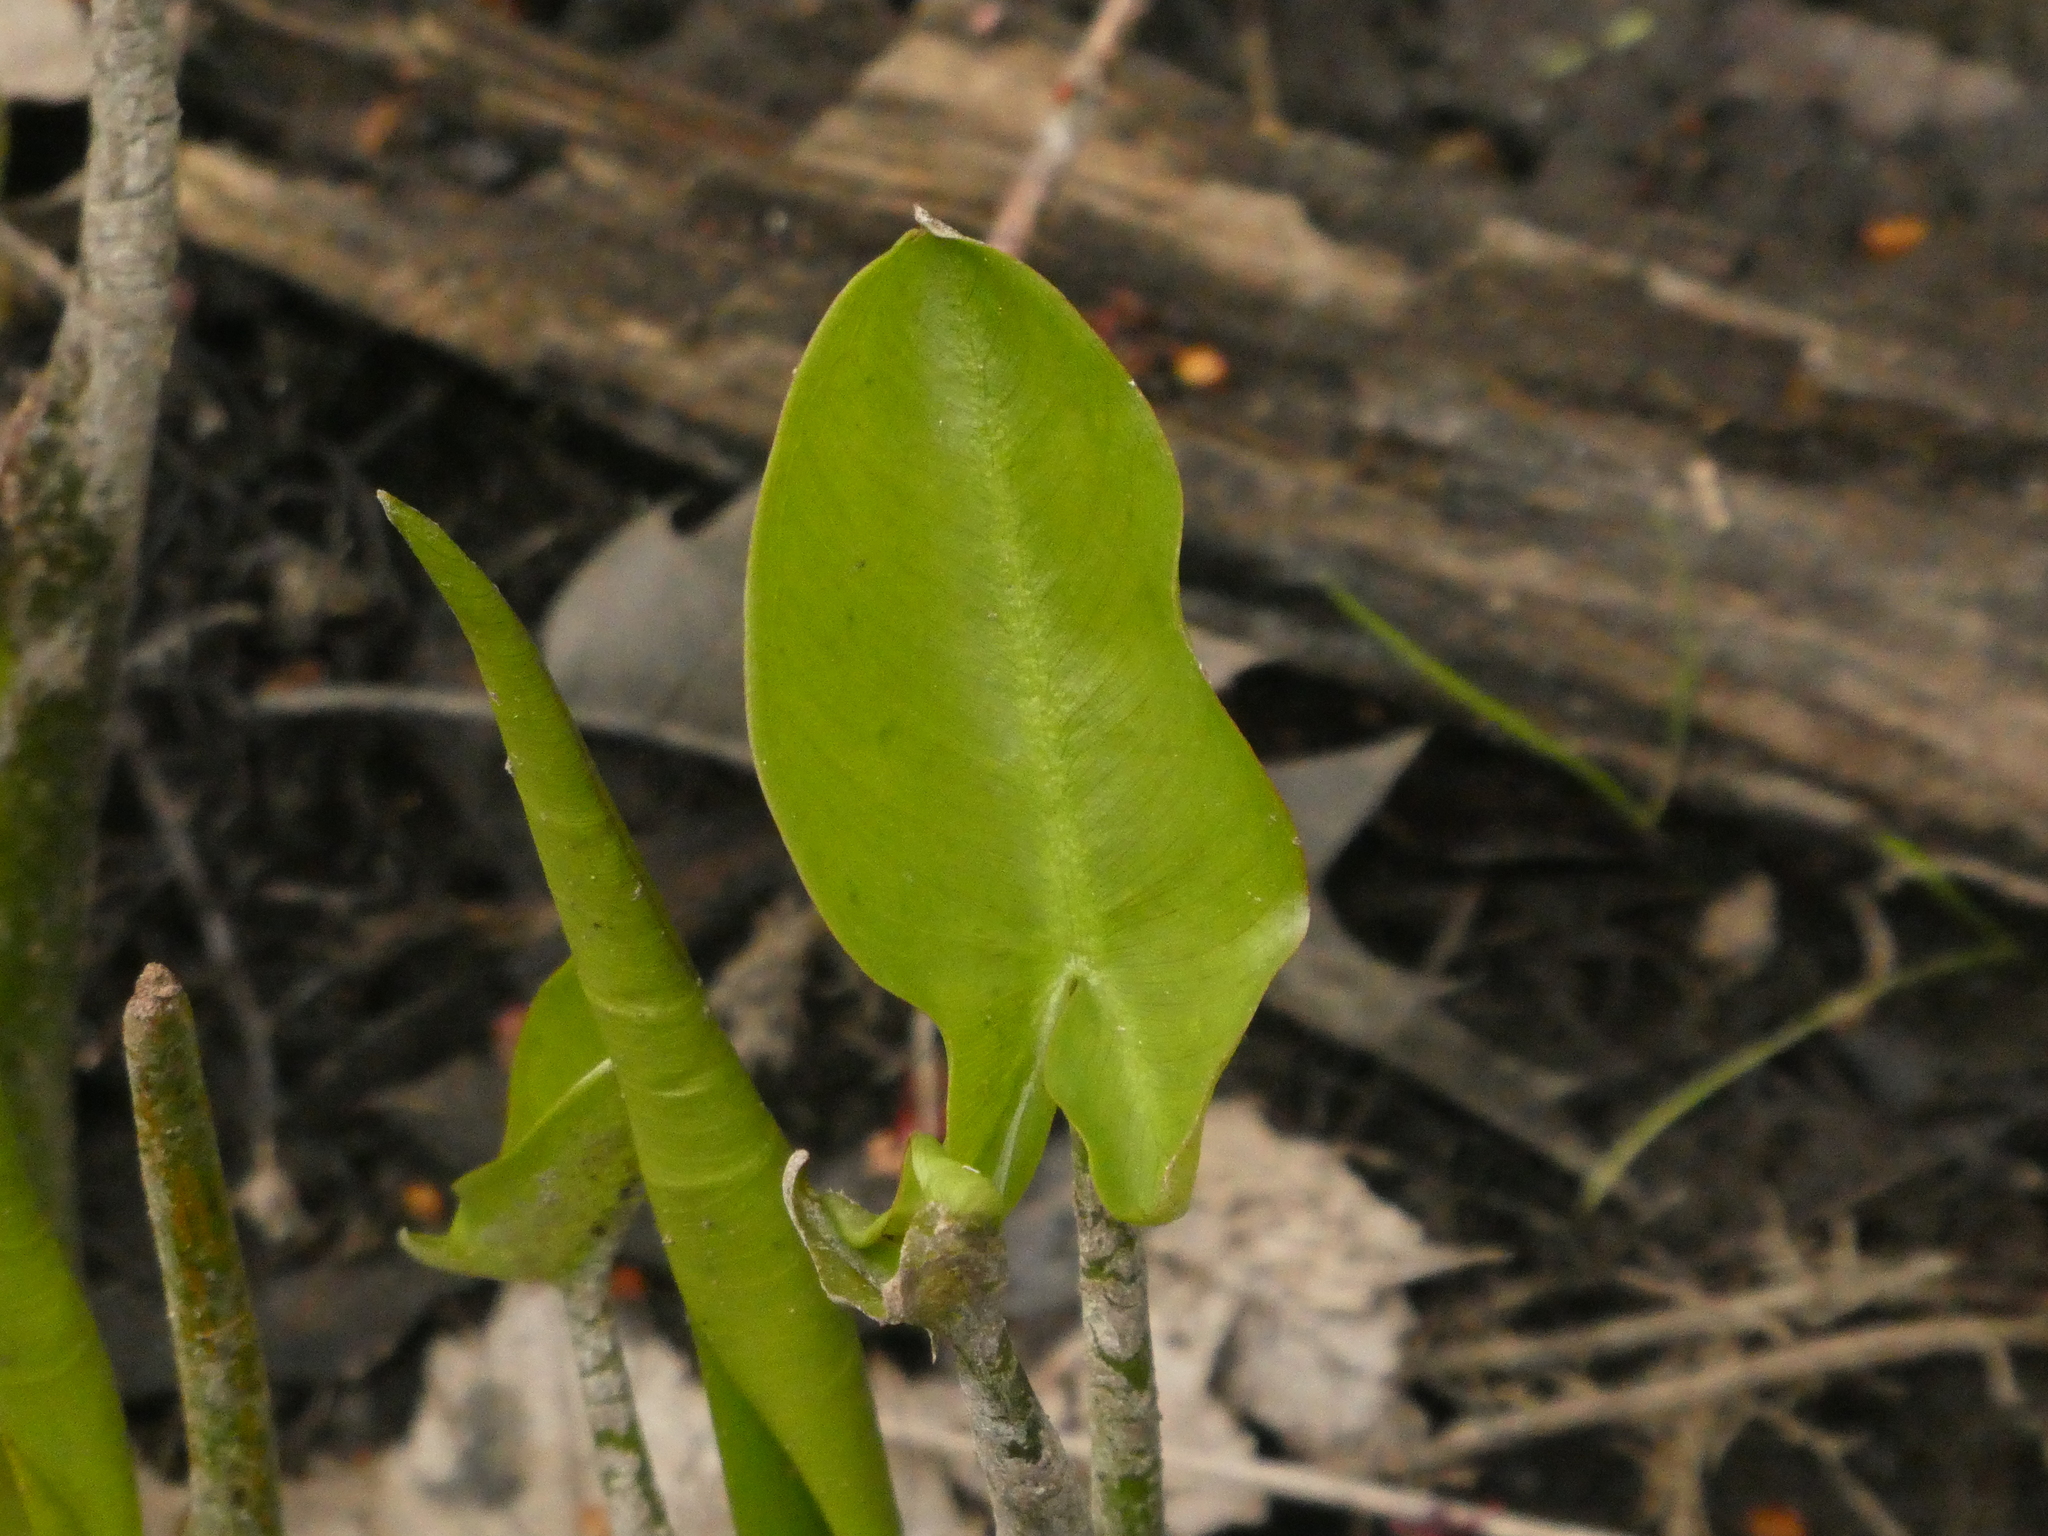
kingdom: Plantae
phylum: Tracheophyta
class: Liliopsida
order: Alismatales
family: Araceae
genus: Peltandra
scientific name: Peltandra virginica
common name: Arrow arum
